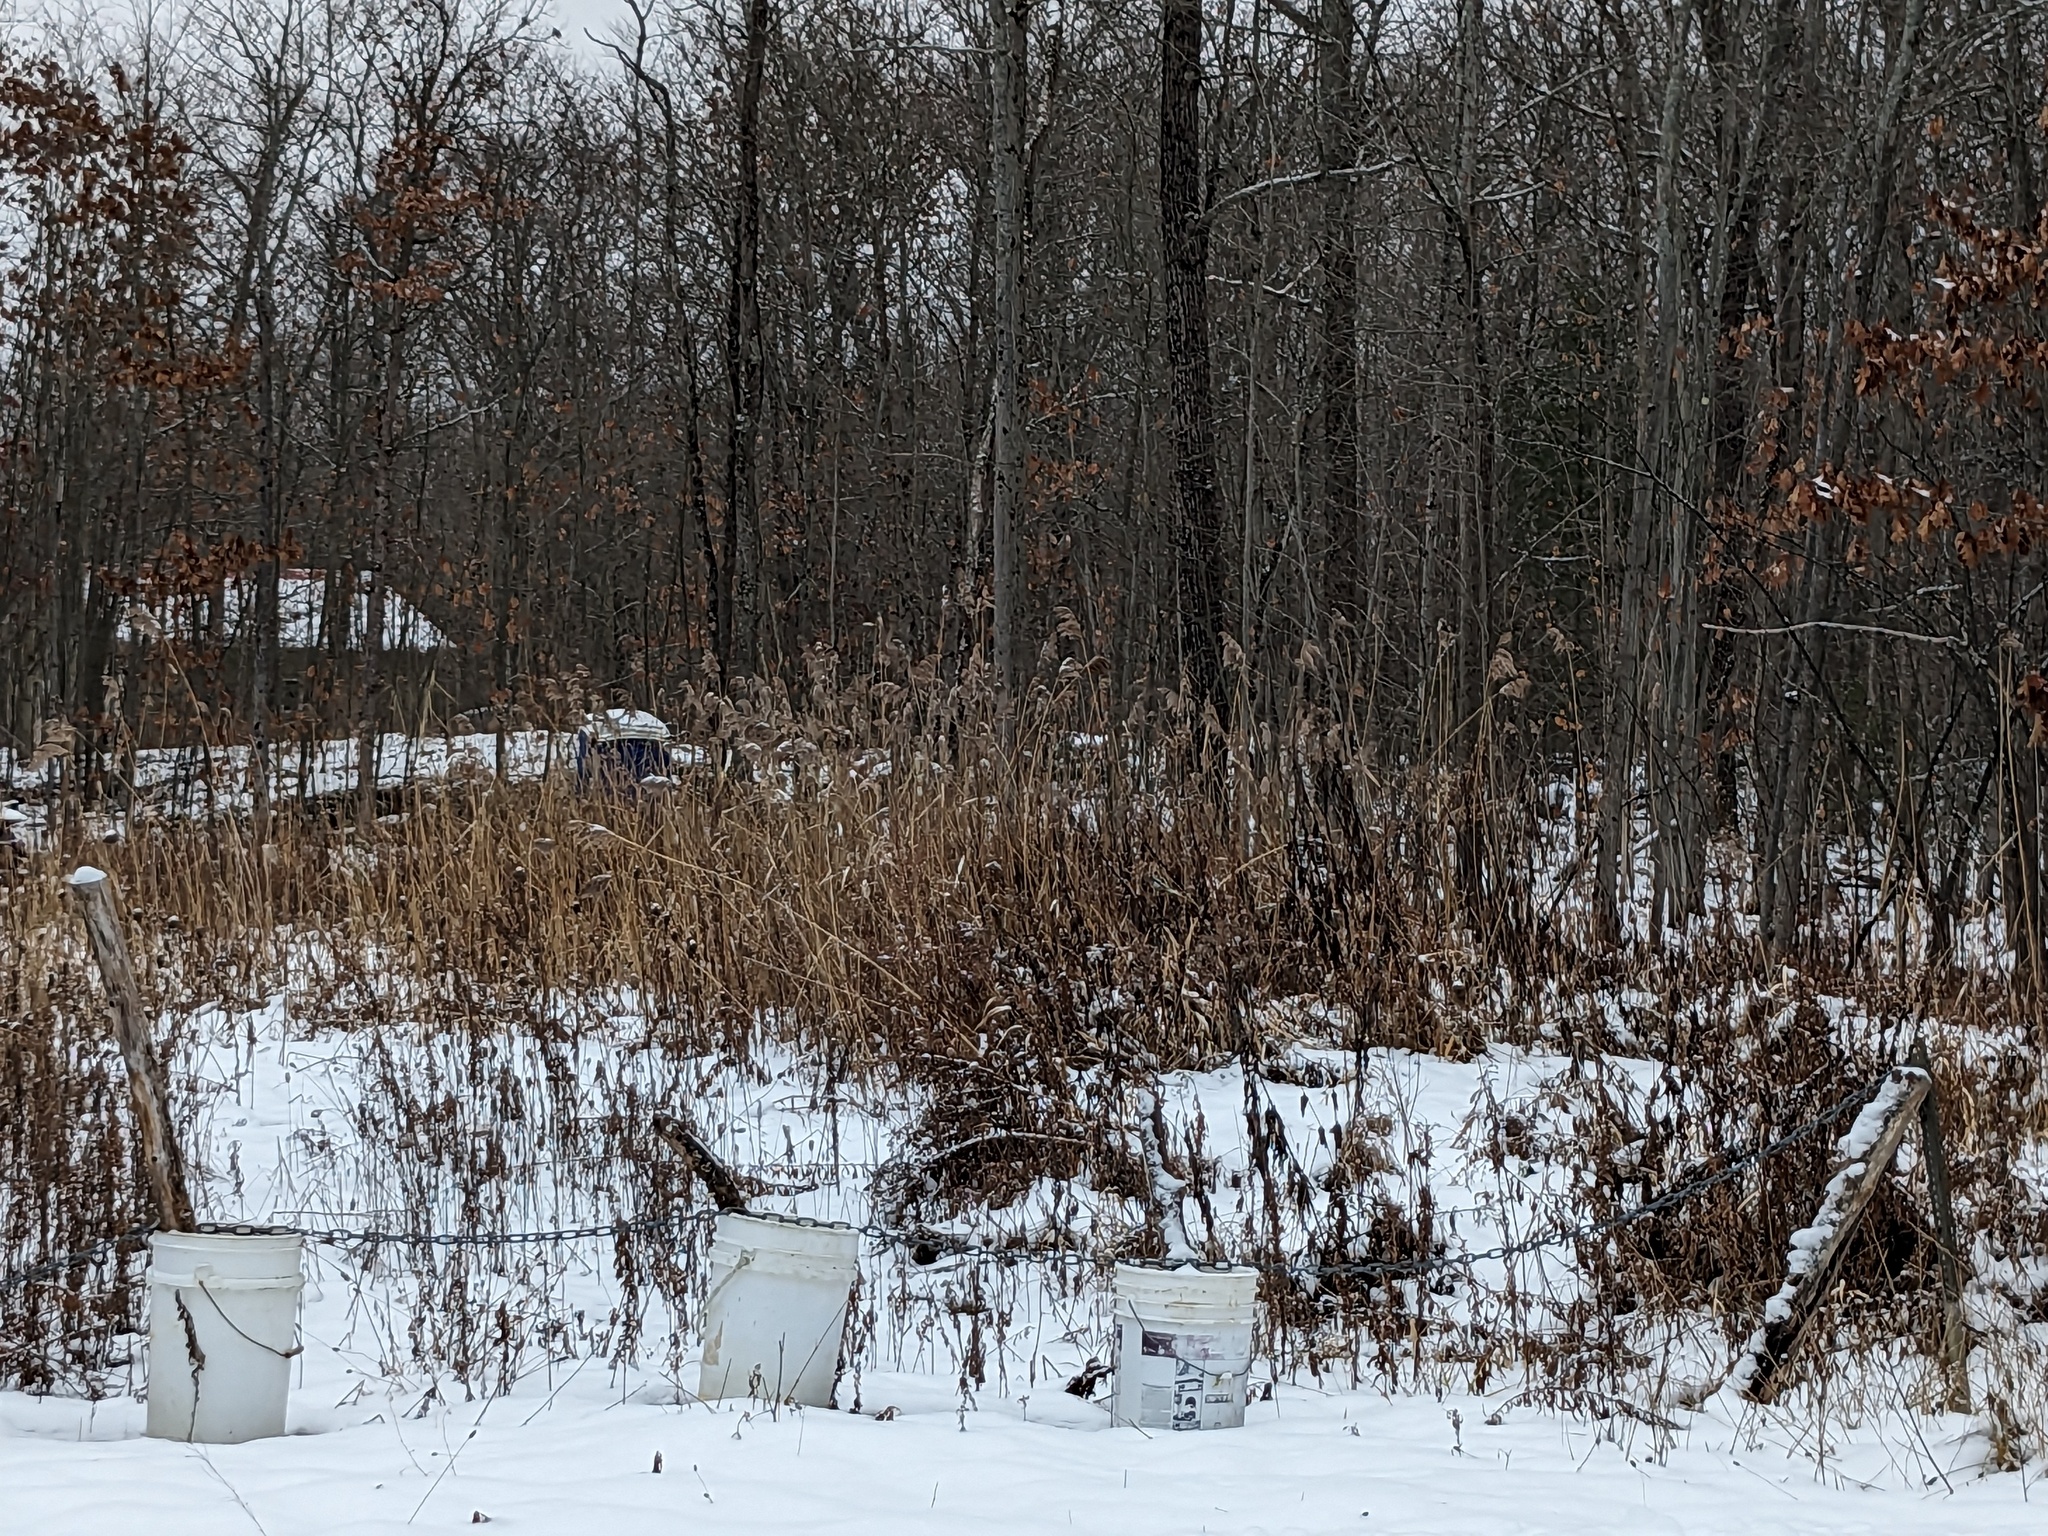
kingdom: Plantae
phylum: Tracheophyta
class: Liliopsida
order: Poales
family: Poaceae
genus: Phragmites
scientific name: Phragmites australis
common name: Common reed
